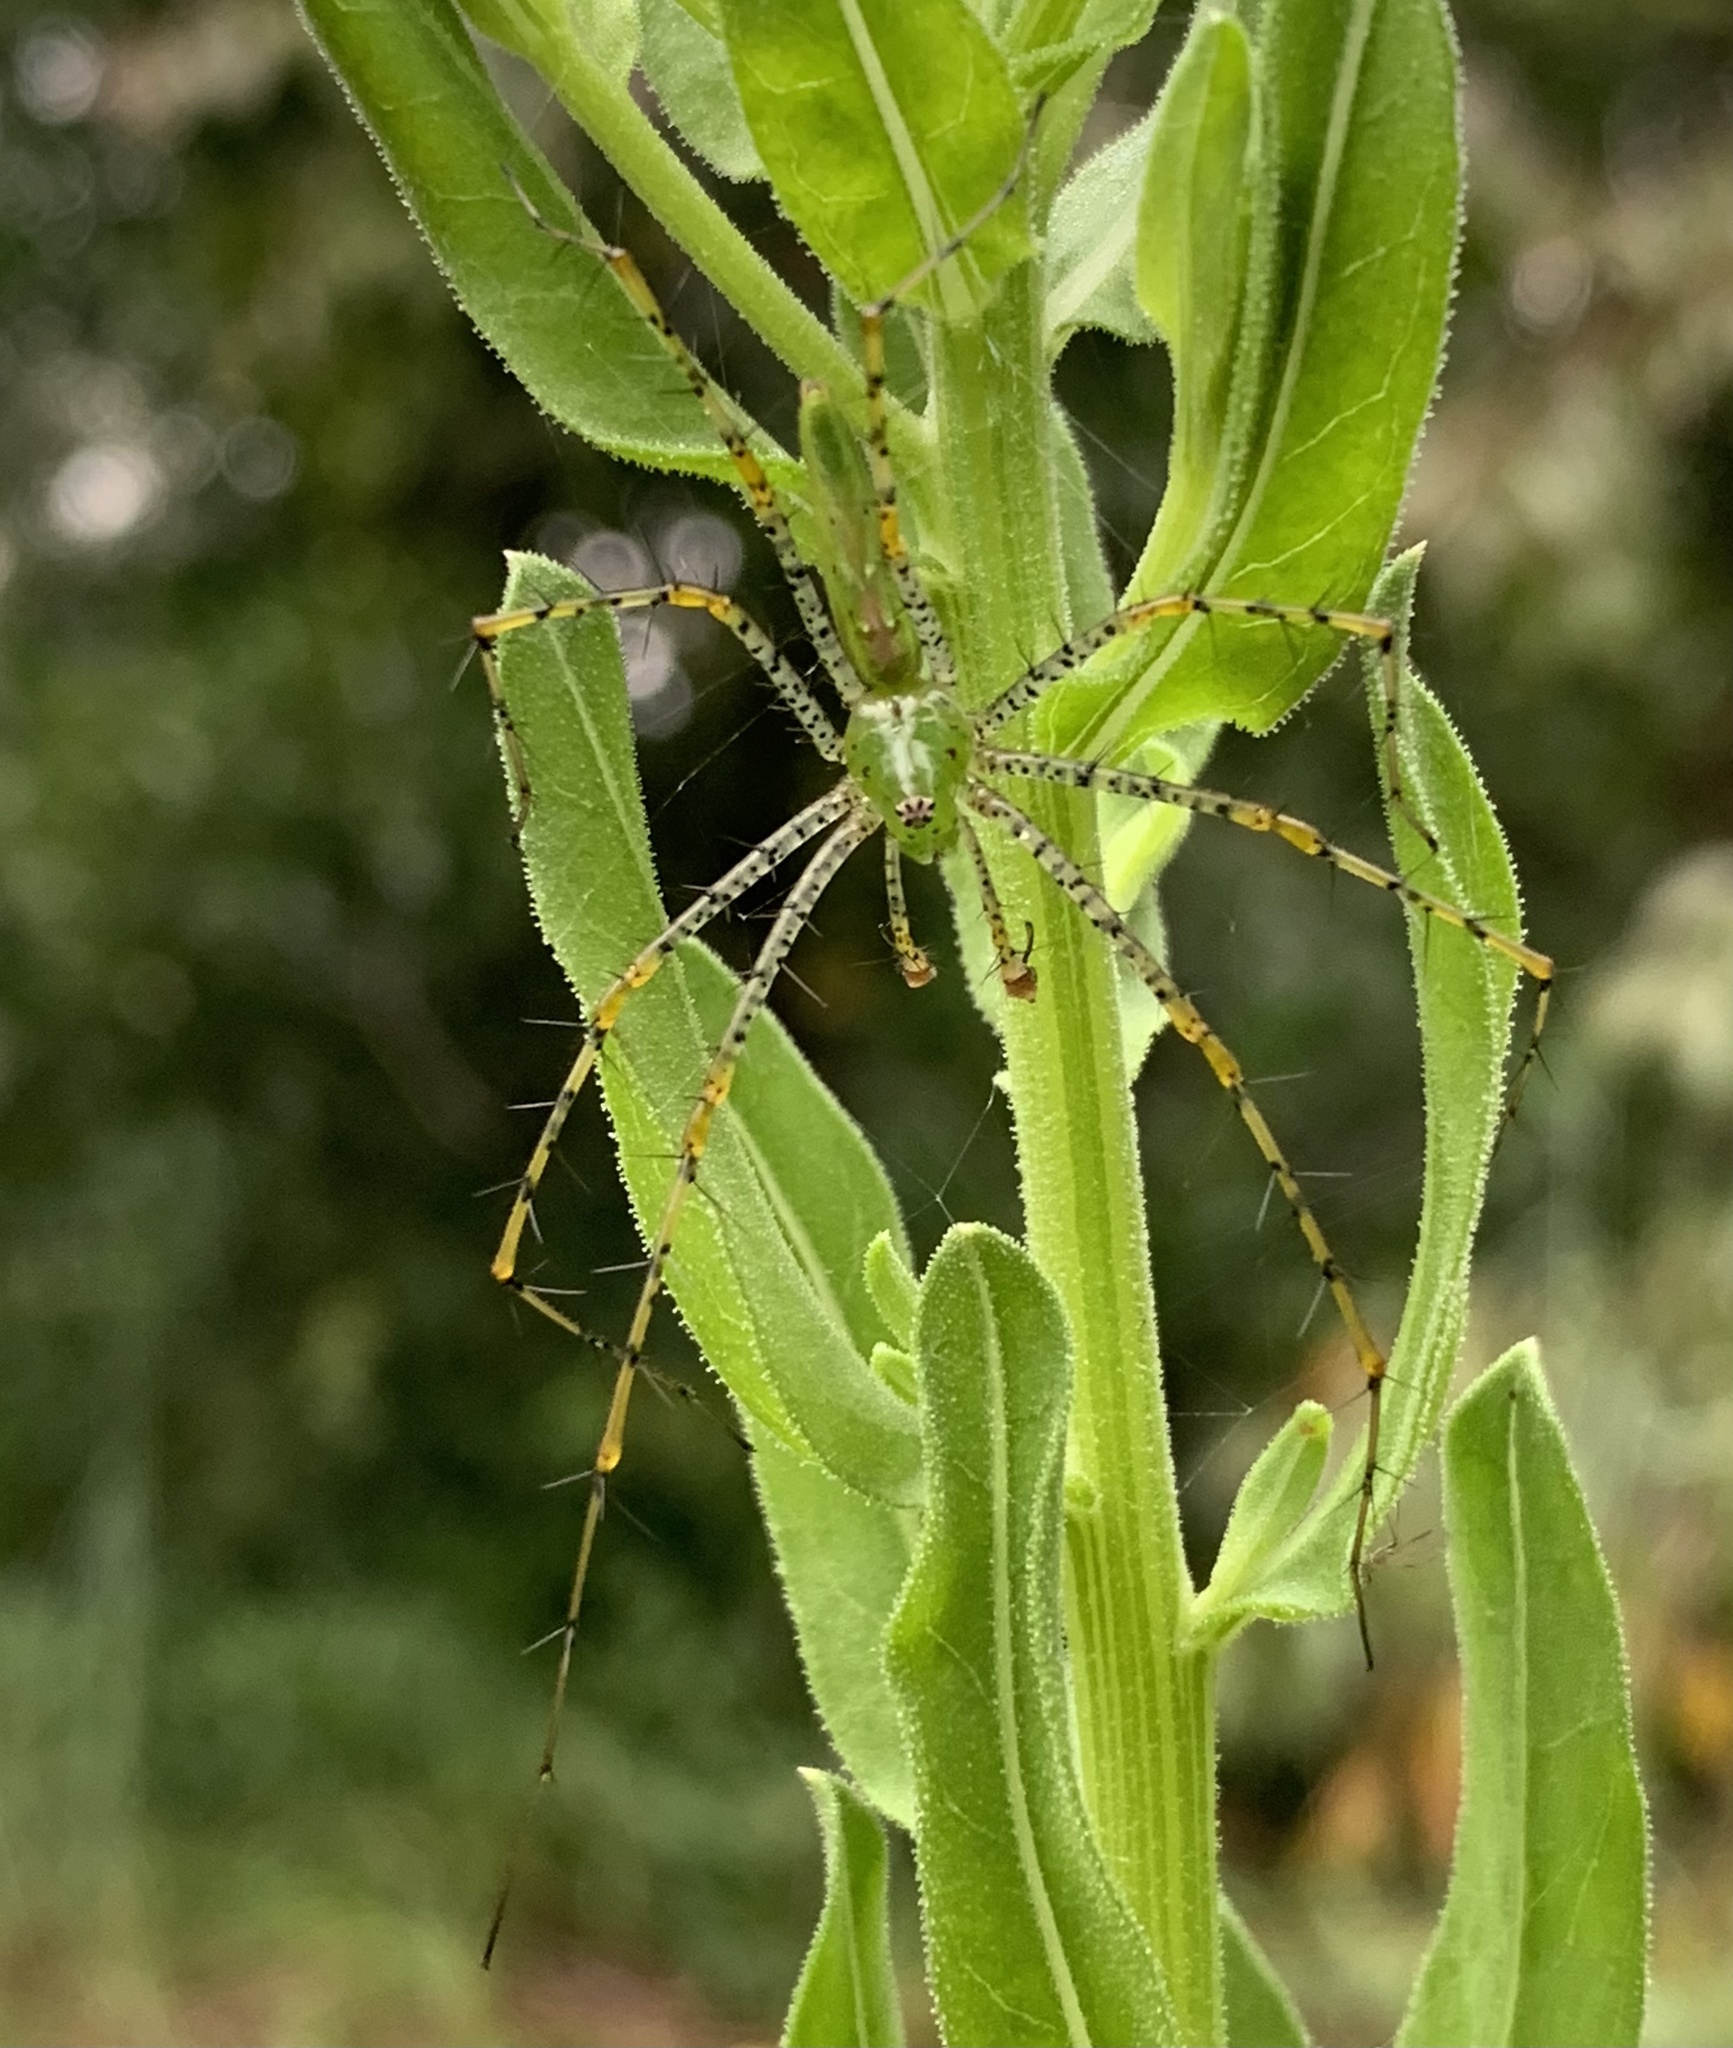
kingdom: Animalia
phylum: Arthropoda
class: Arachnida
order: Araneae
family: Oxyopidae
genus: Peucetia
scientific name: Peucetia viridans
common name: Lynx spiders
